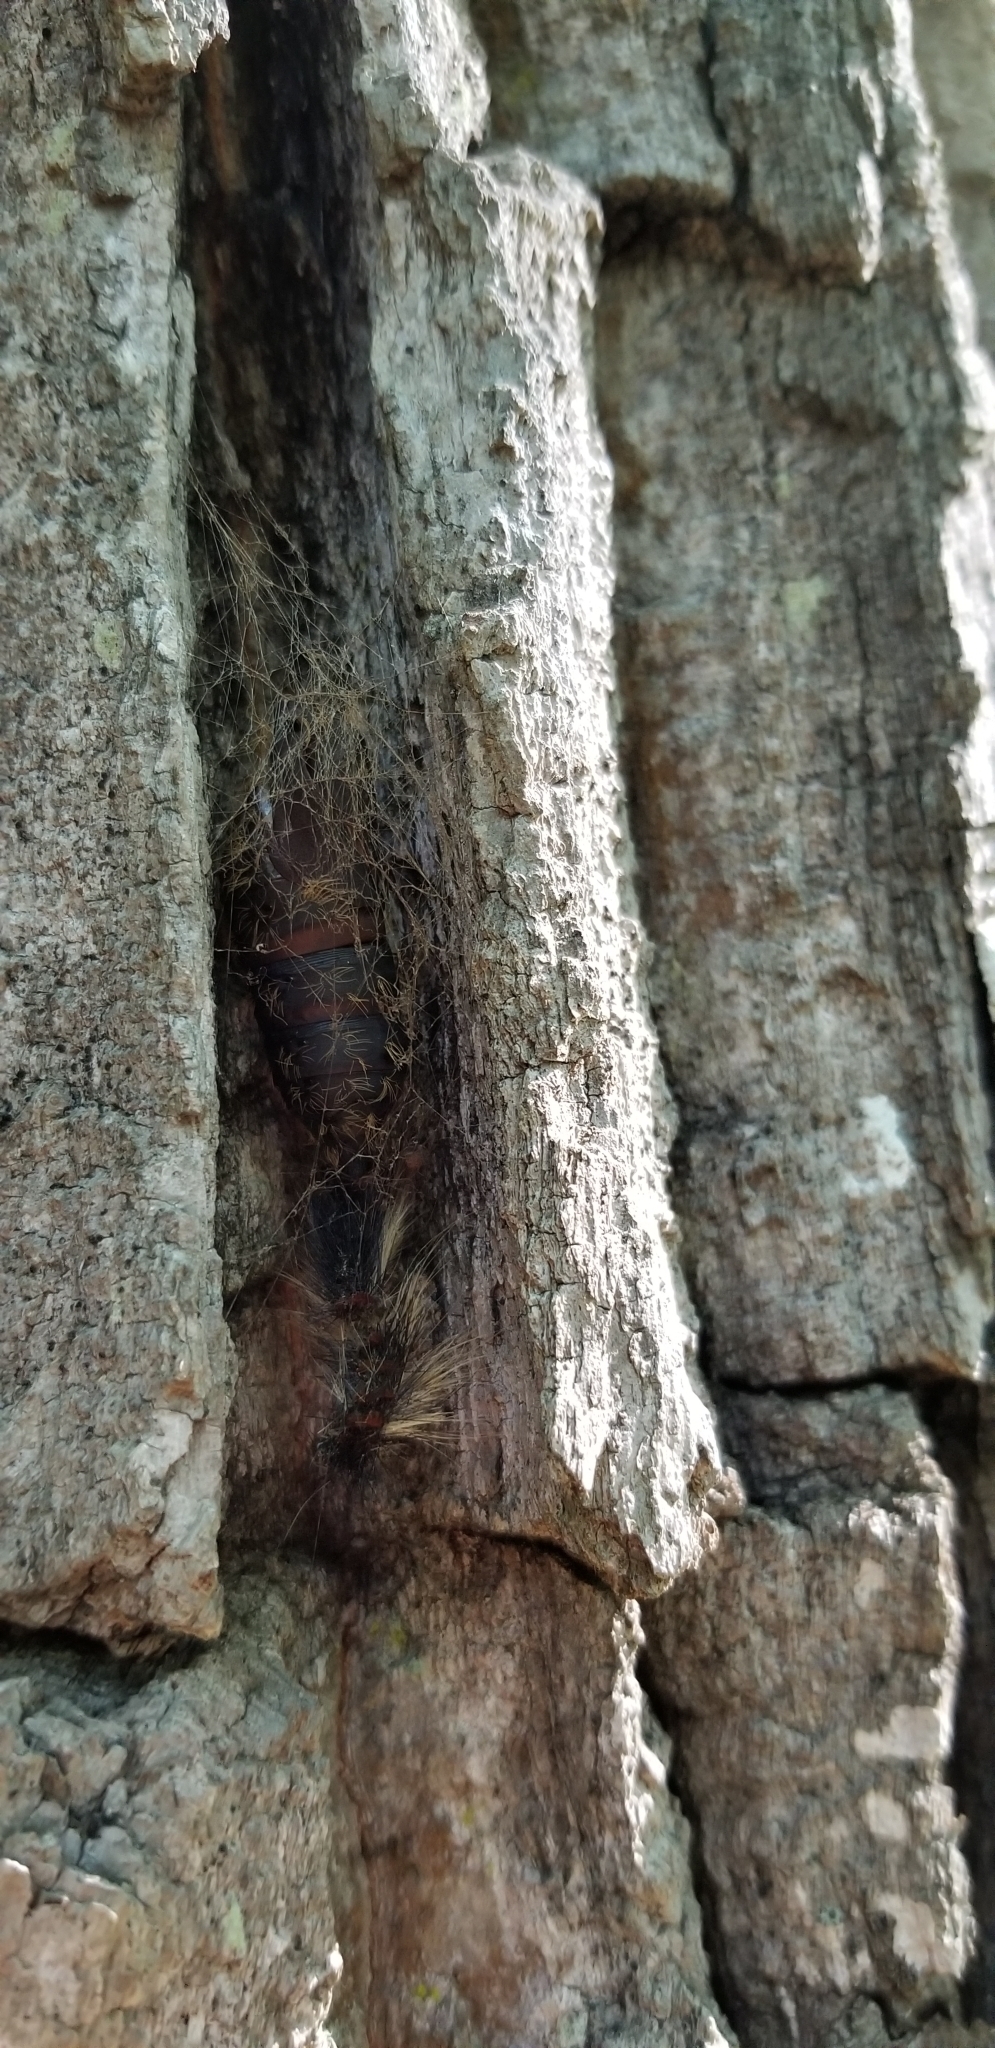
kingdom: Animalia
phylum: Arthropoda
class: Insecta
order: Lepidoptera
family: Erebidae
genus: Lymantria
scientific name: Lymantria dispar
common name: Gypsy moth
